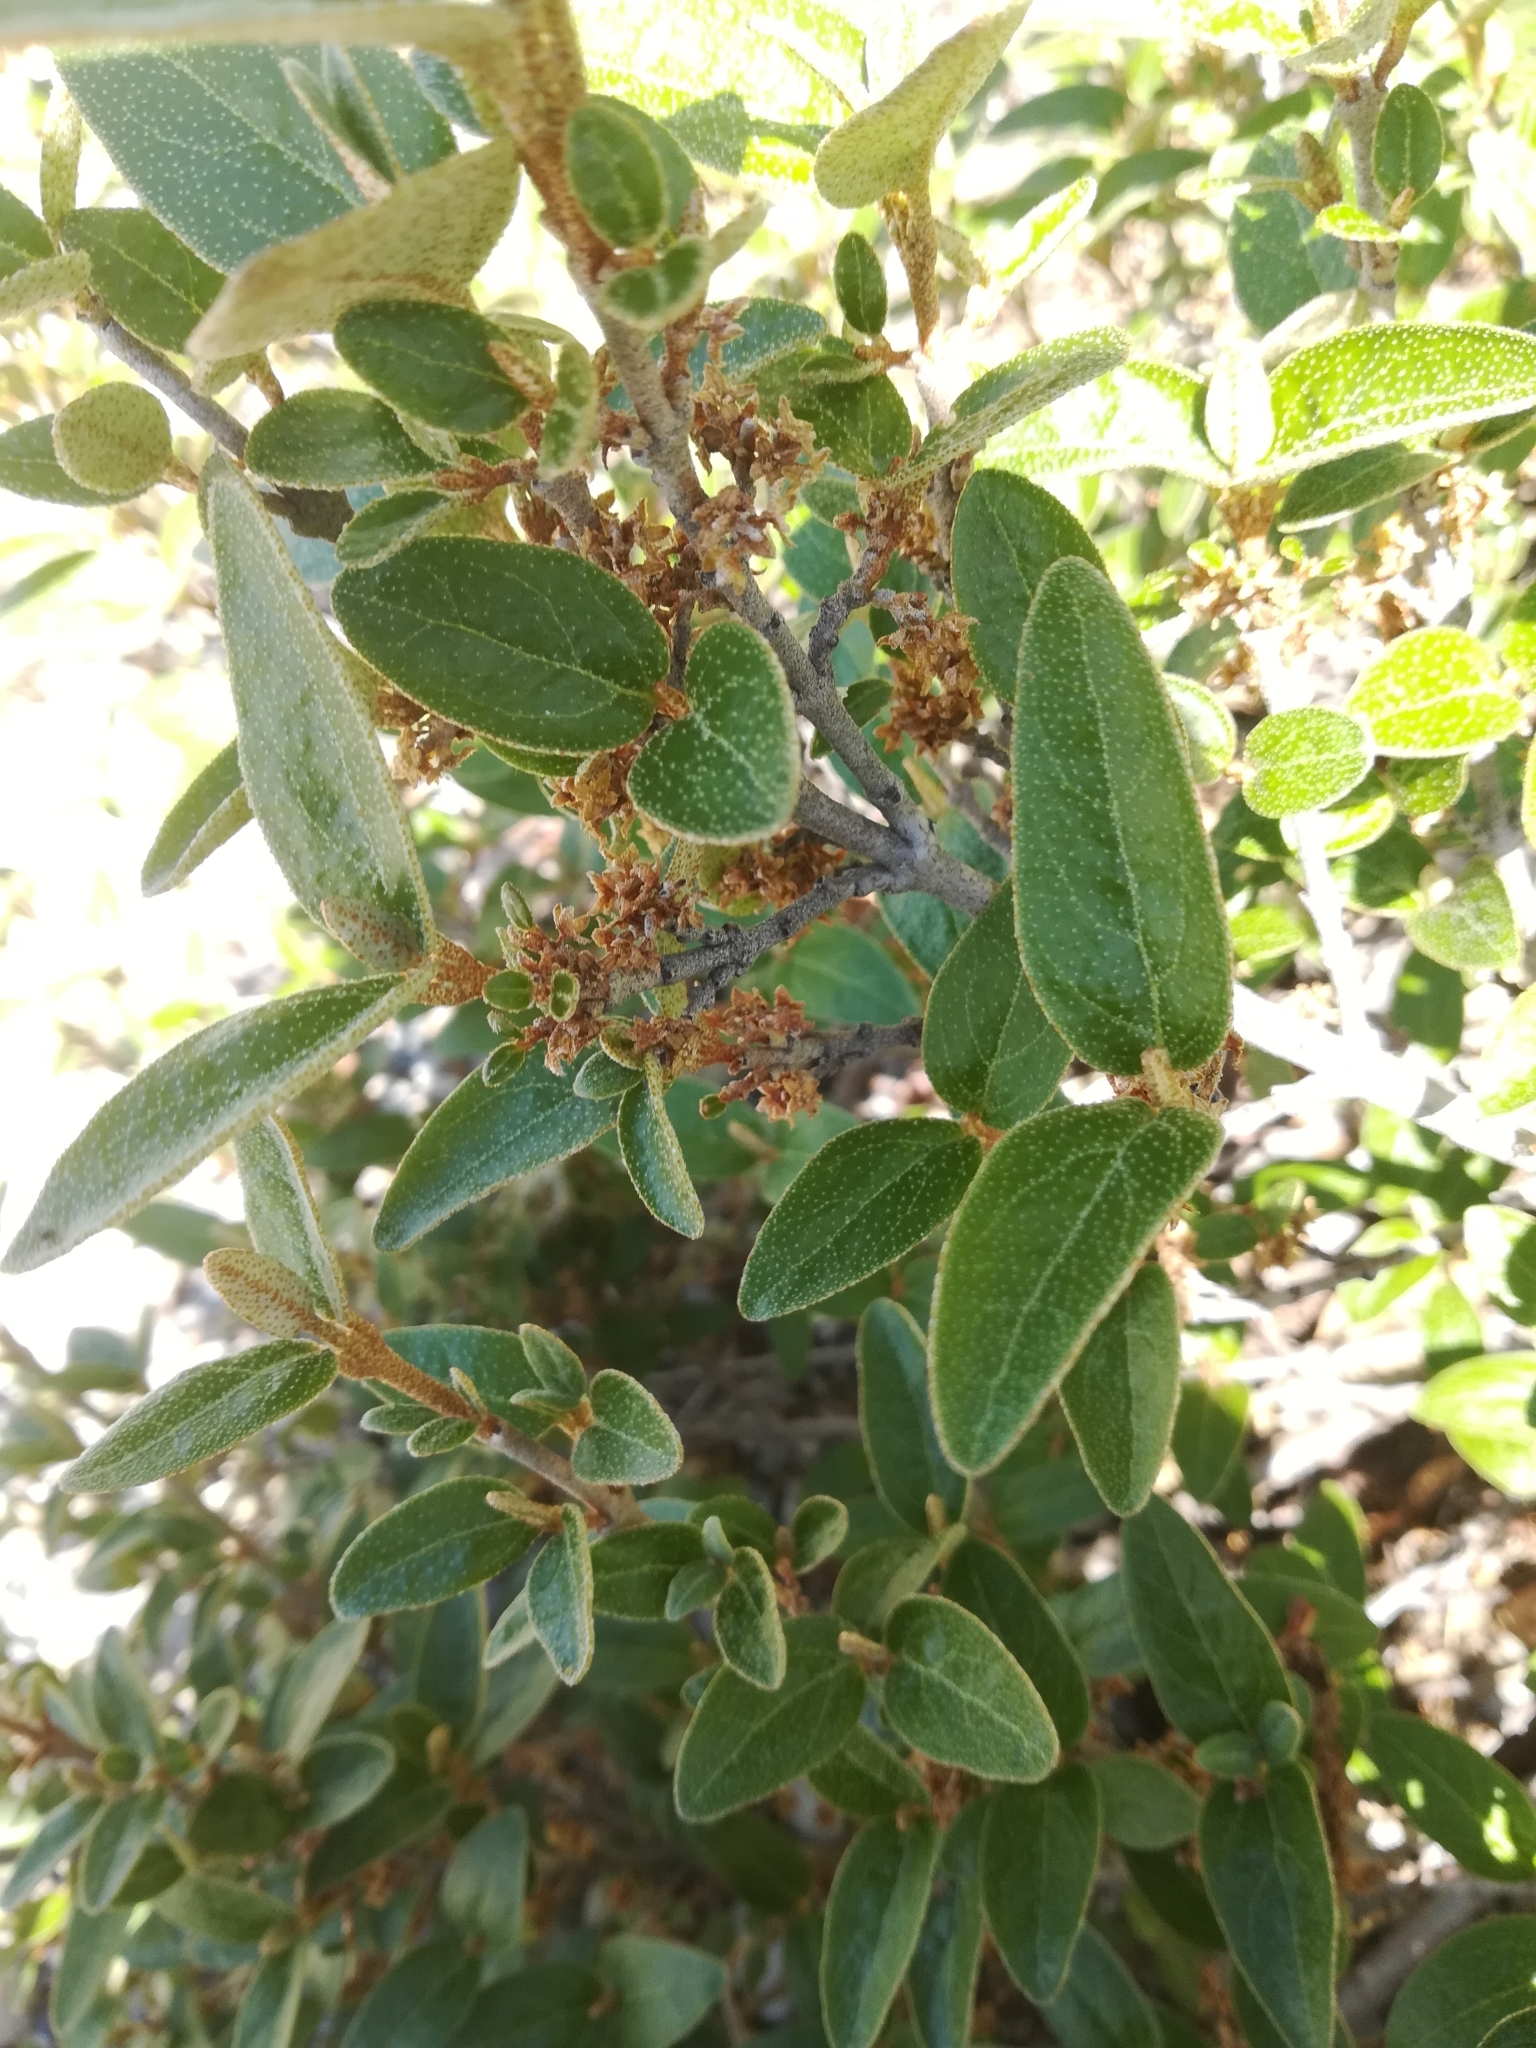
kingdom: Plantae
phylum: Tracheophyta
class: Magnoliopsida
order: Rosales
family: Elaeagnaceae
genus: Shepherdia
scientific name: Shepherdia canadensis
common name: Soapberry
